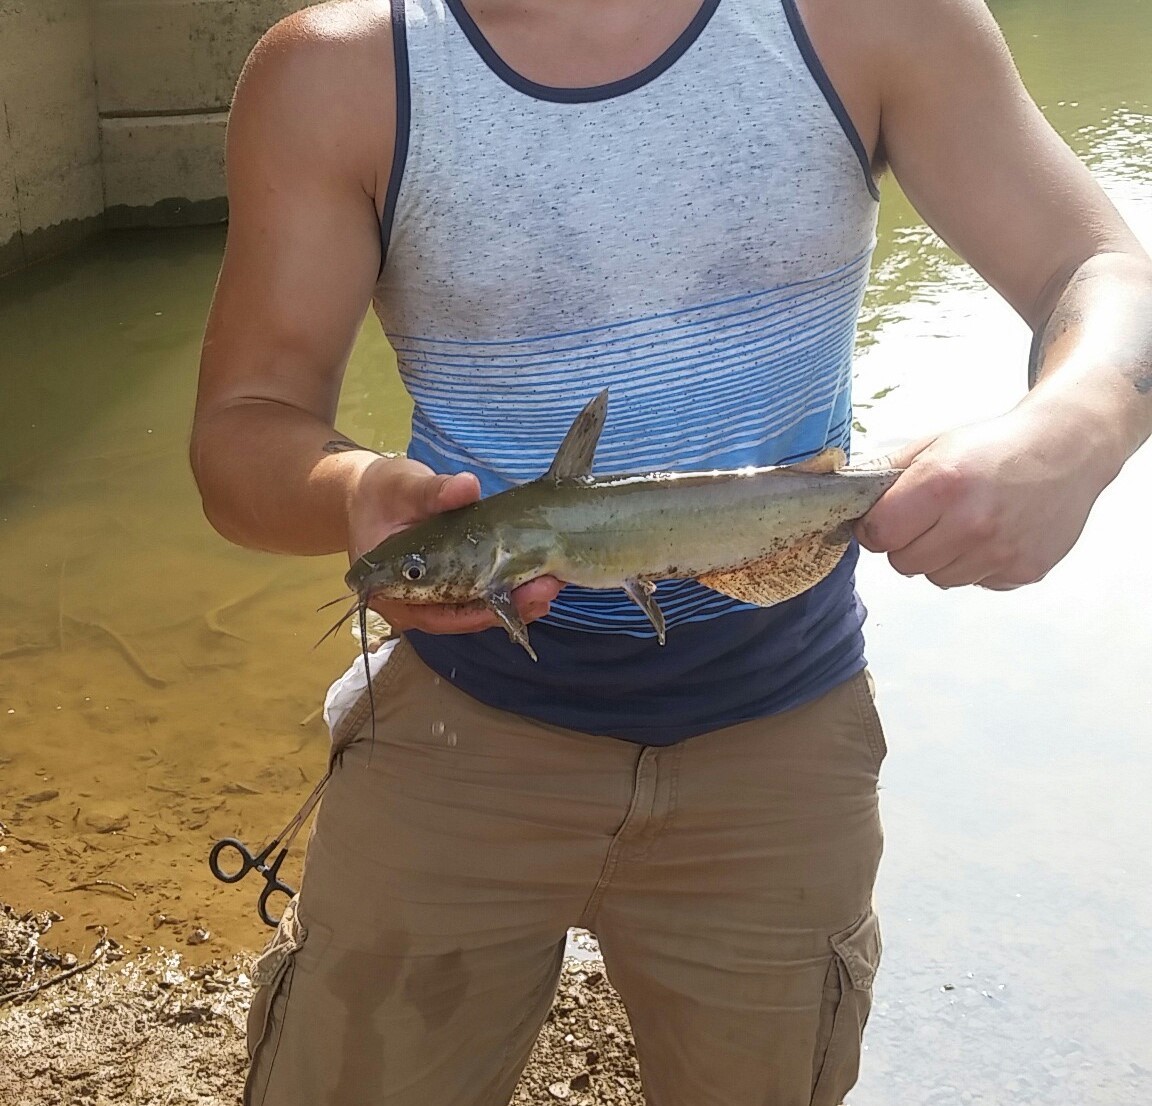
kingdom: Animalia
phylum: Chordata
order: Siluriformes
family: Ictaluridae
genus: Ictalurus
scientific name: Ictalurus punctatus
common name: Channel catfish
